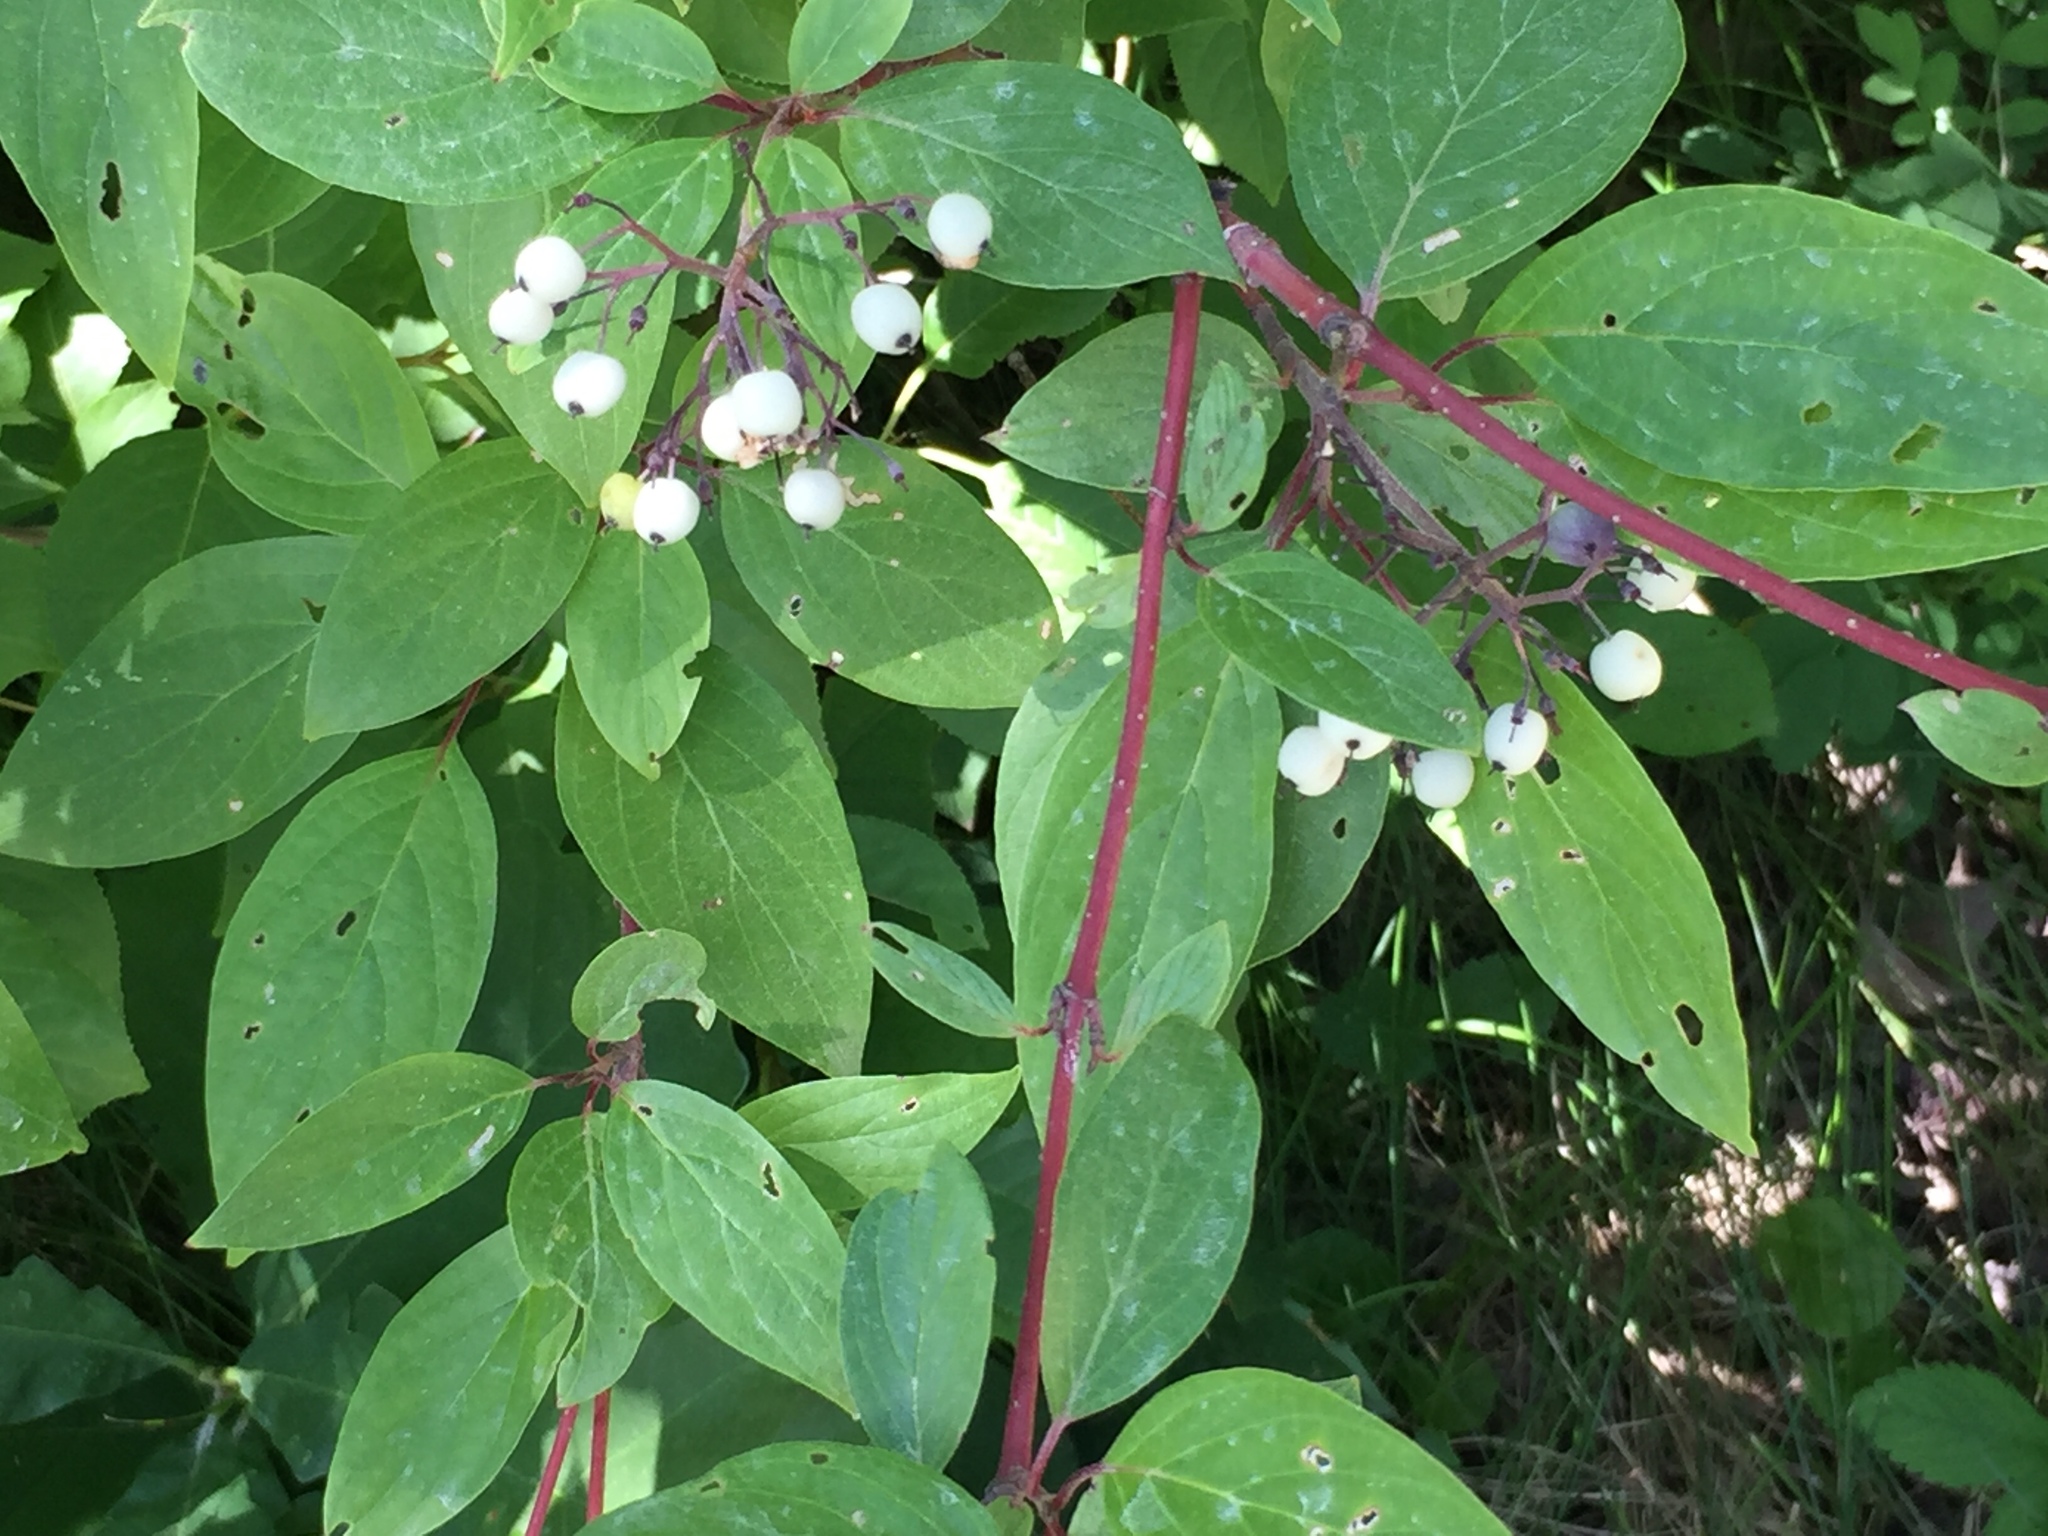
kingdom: Plantae
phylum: Tracheophyta
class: Magnoliopsida
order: Cornales
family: Cornaceae
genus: Cornus
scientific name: Cornus sericea
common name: Red-osier dogwood
